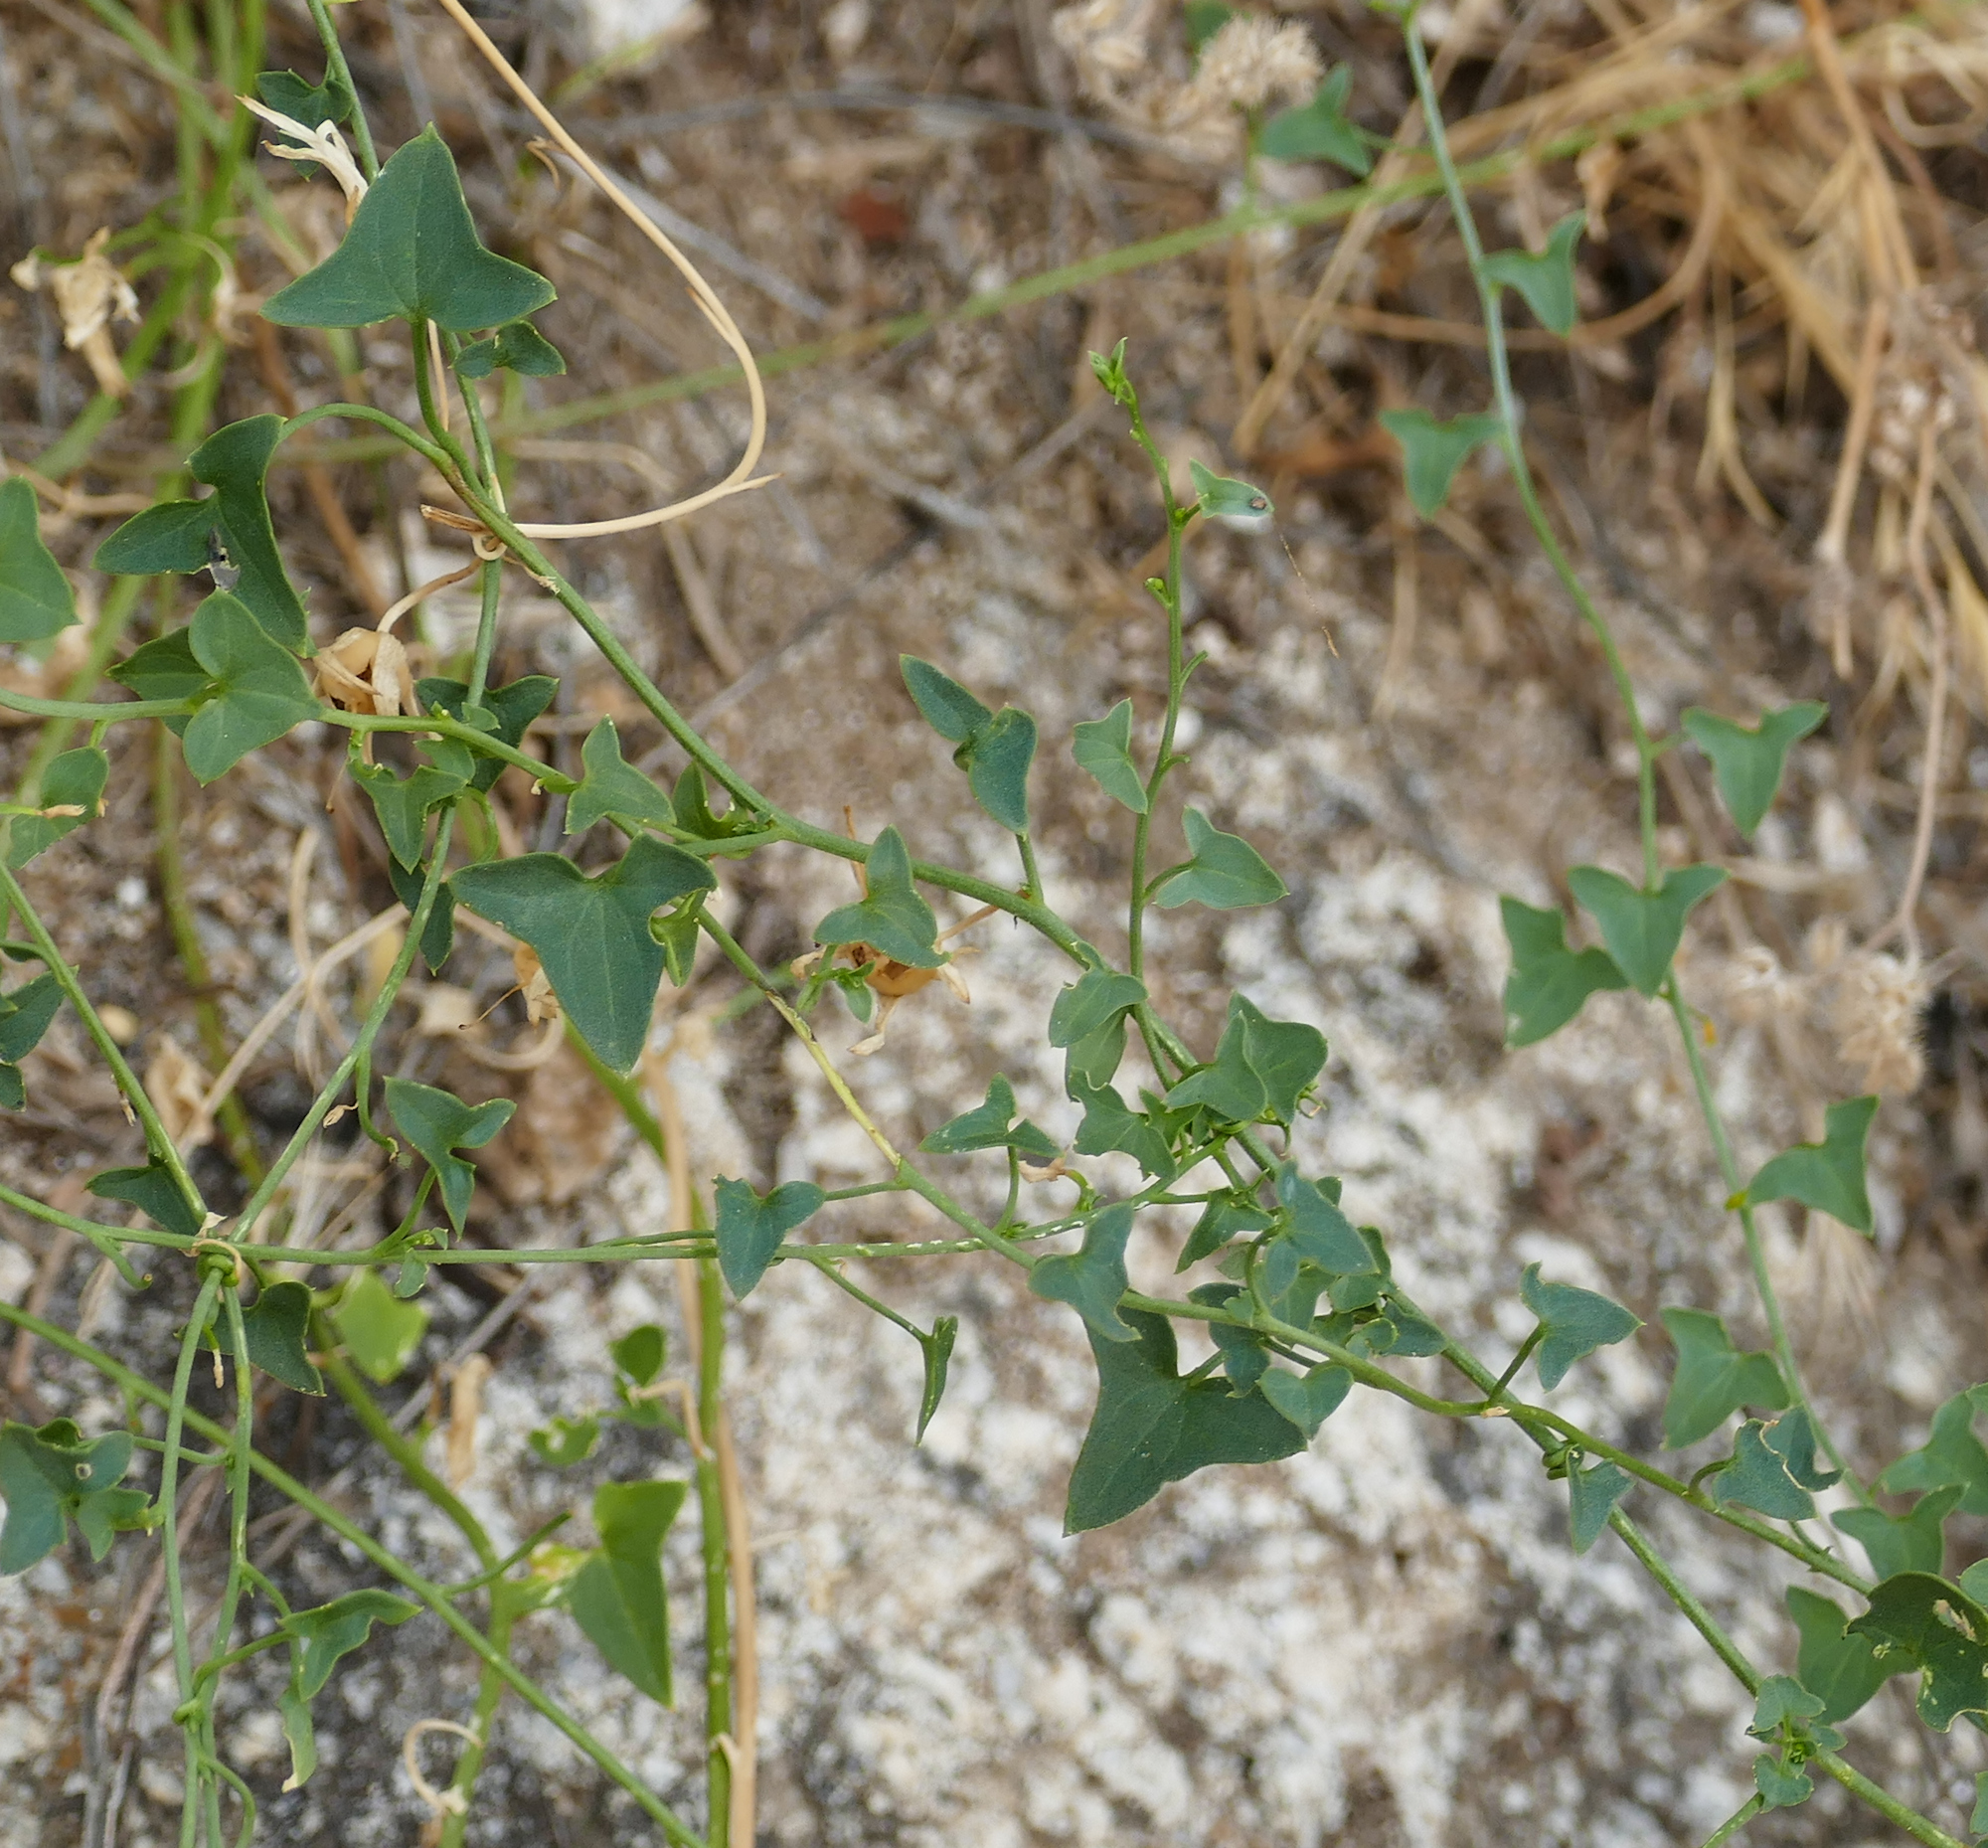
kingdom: Plantae
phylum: Tracheophyta
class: Magnoliopsida
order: Lamiales
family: Plantaginaceae
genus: Maurandella
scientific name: Maurandella antirrhiniflora
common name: Violet twining-snapdragon
